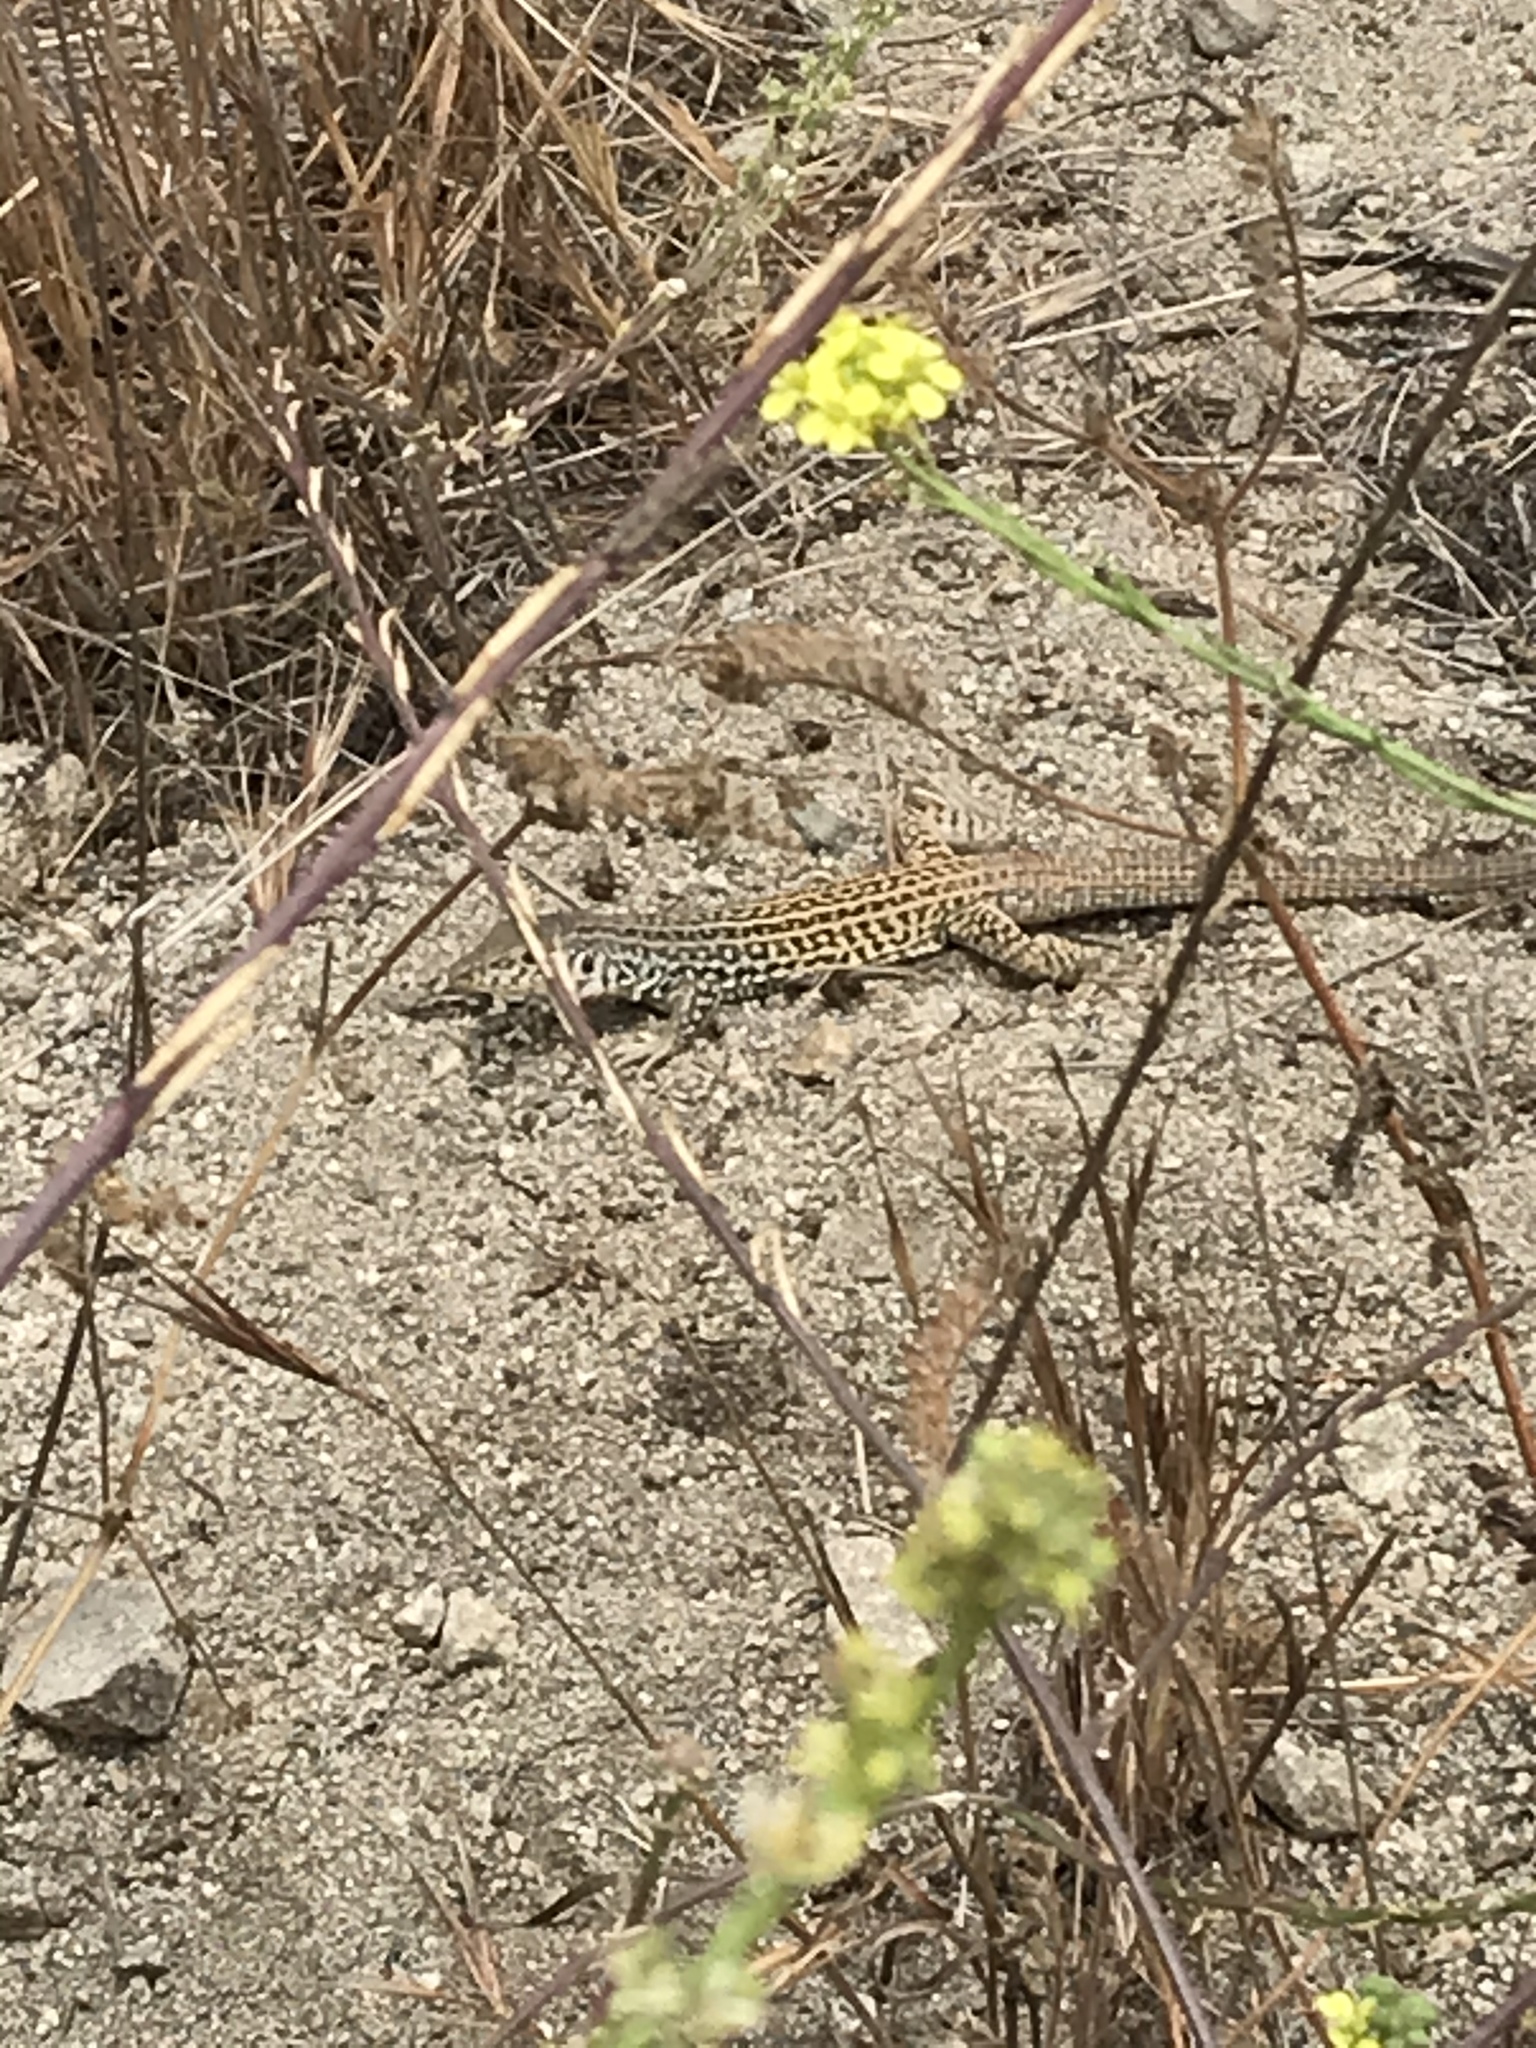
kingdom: Animalia
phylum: Chordata
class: Squamata
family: Teiidae
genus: Aspidoscelis
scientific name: Aspidoscelis tigris
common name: Tiger whiptail
